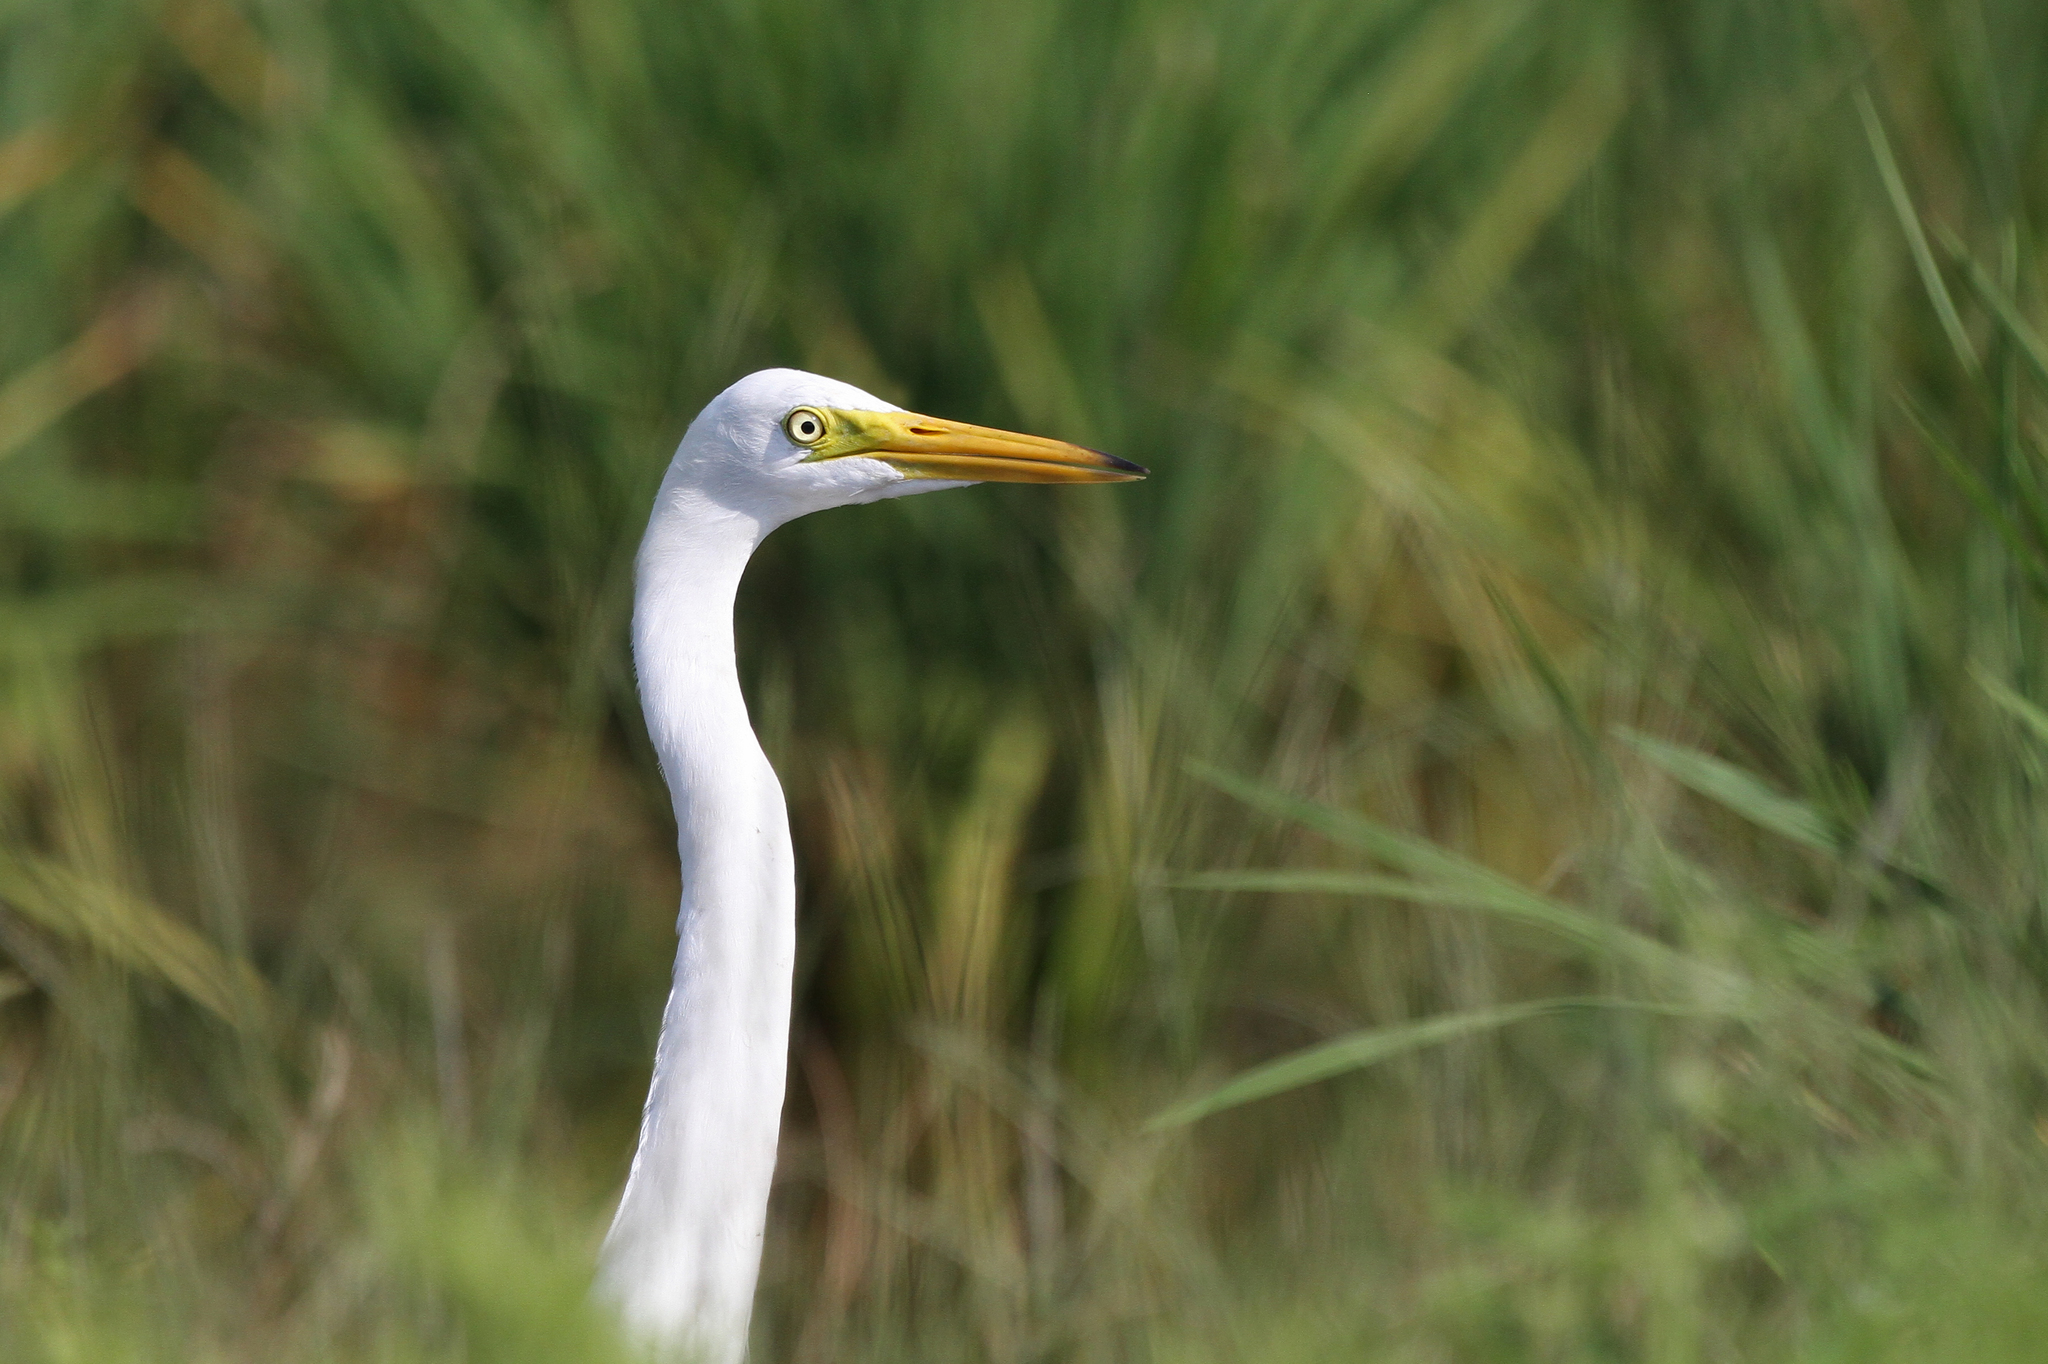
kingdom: Animalia
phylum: Chordata
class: Aves
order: Pelecaniformes
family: Ardeidae
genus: Egretta
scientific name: Egretta intermedia
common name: Intermediate egret
